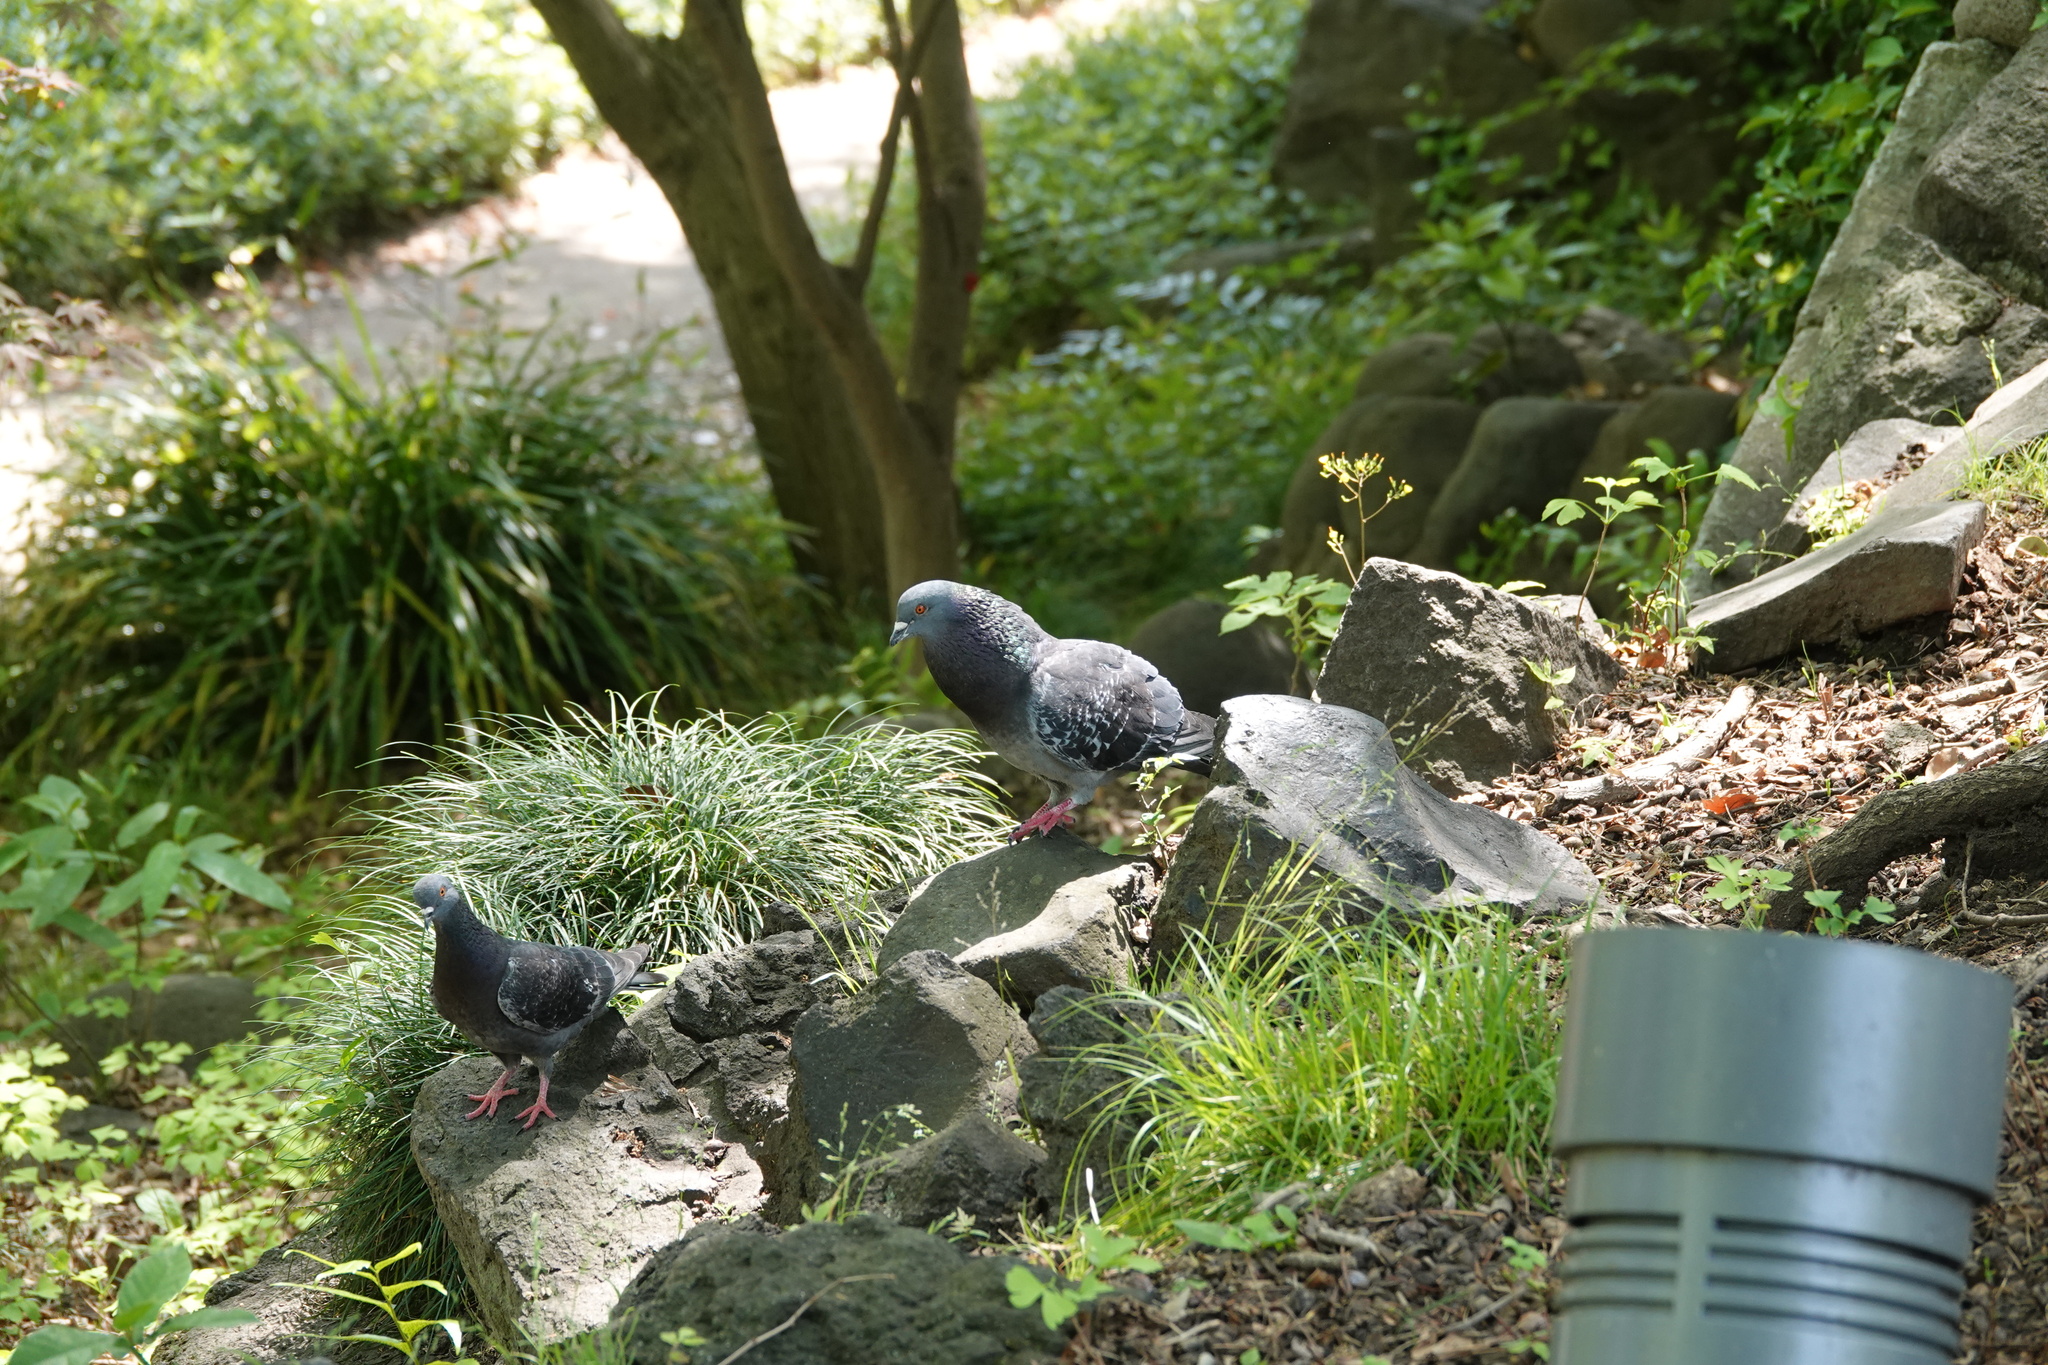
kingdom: Animalia
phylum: Chordata
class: Aves
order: Columbiformes
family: Columbidae
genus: Columba
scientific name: Columba livia
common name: Rock pigeon
